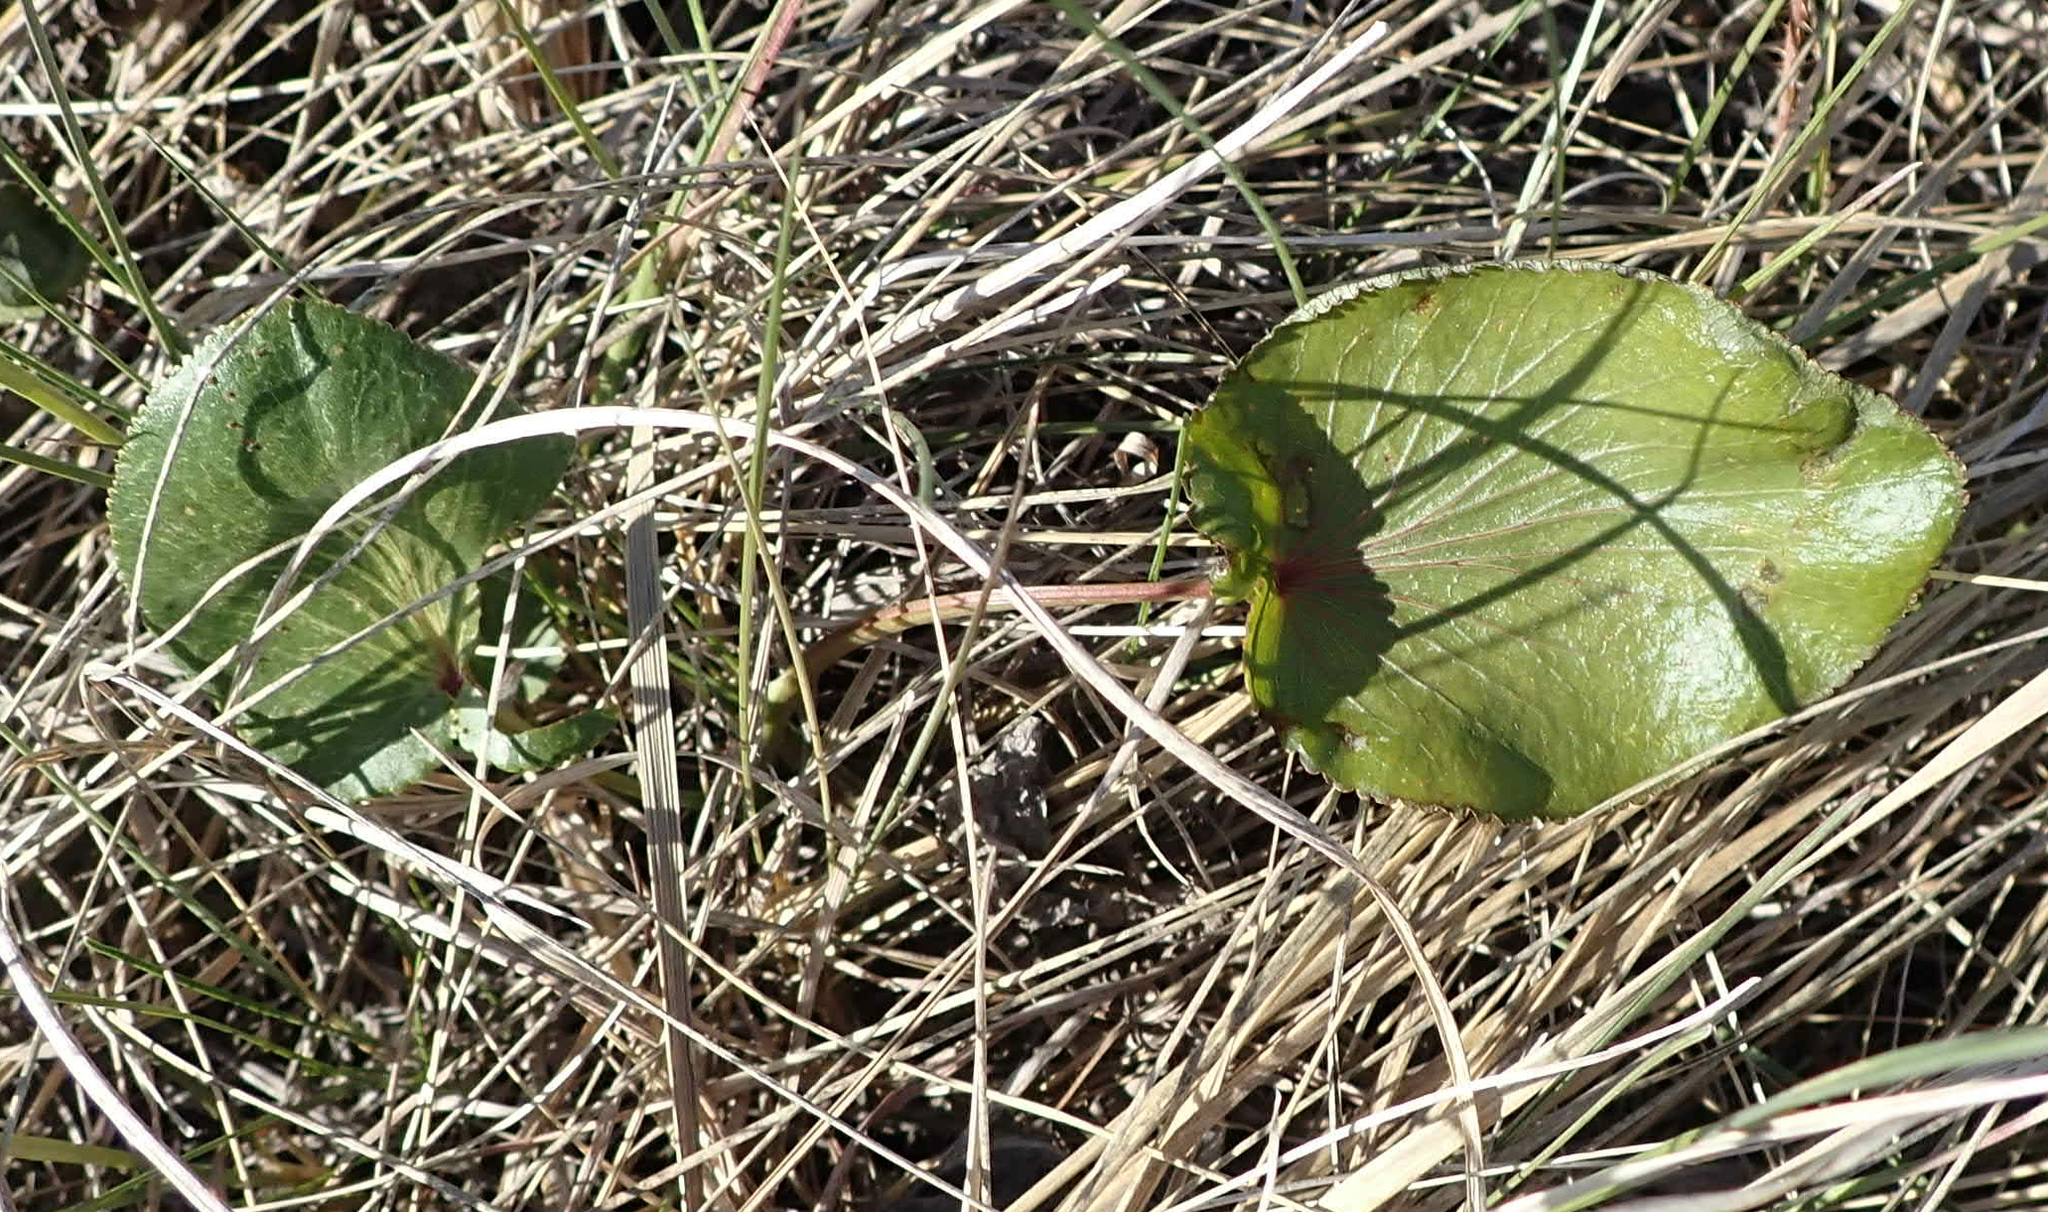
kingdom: Plantae
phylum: Tracheophyta
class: Magnoliopsida
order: Apiales
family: Apiaceae
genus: Zizia
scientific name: Zizia aptera
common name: Heart-leaved alexanders
